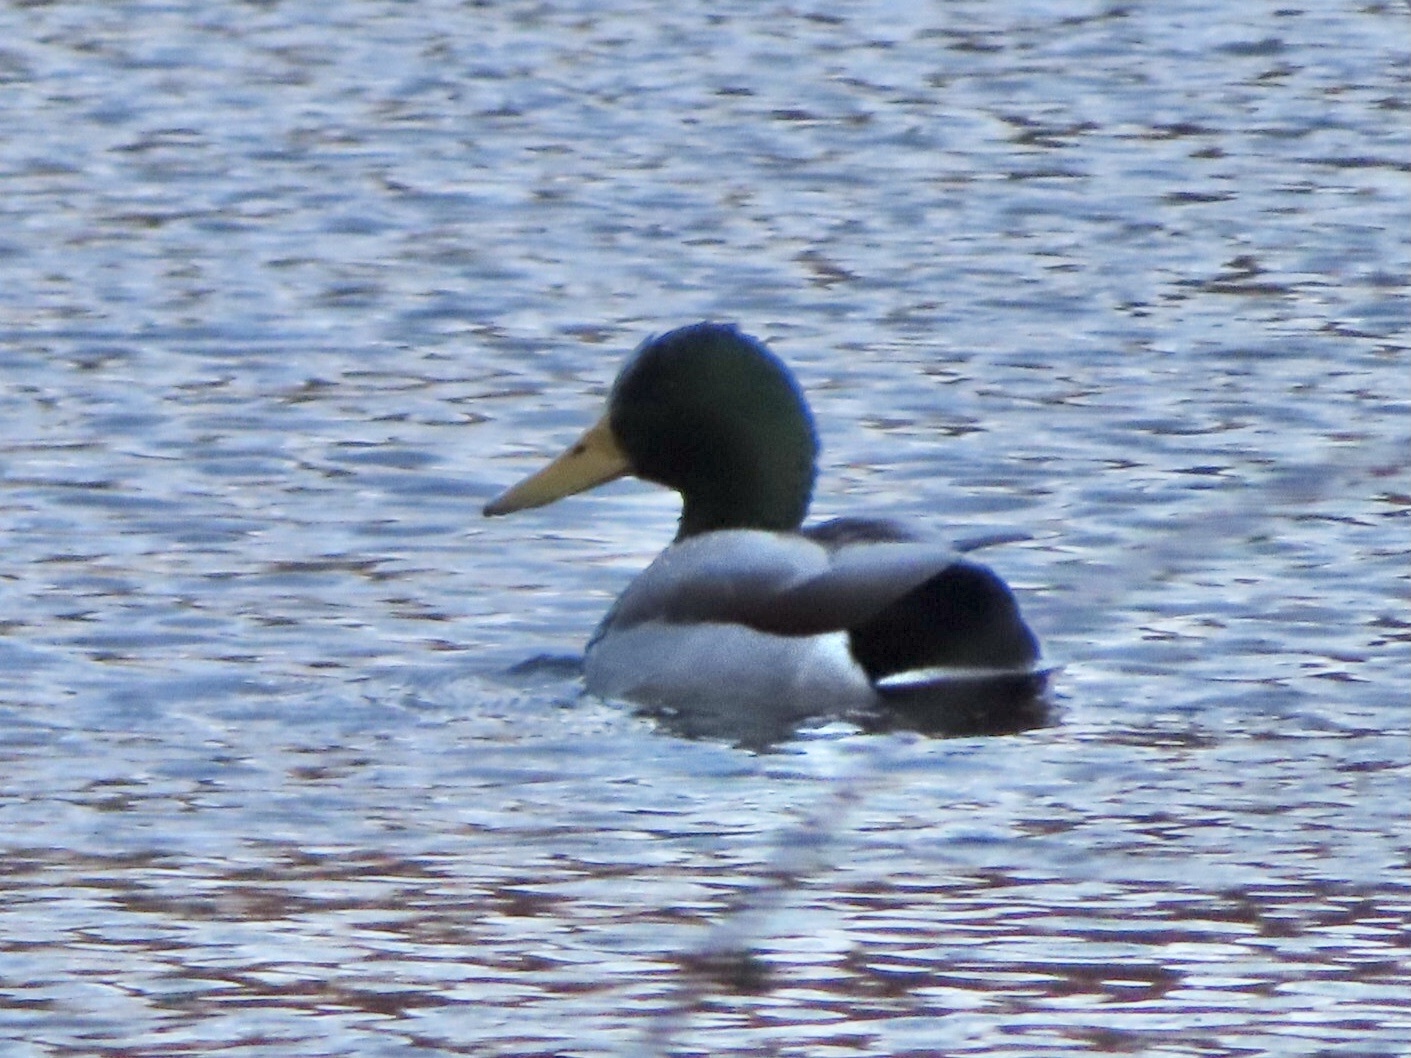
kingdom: Animalia
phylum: Chordata
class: Aves
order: Anseriformes
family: Anatidae
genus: Anas
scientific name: Anas platyrhynchos
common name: Mallard
